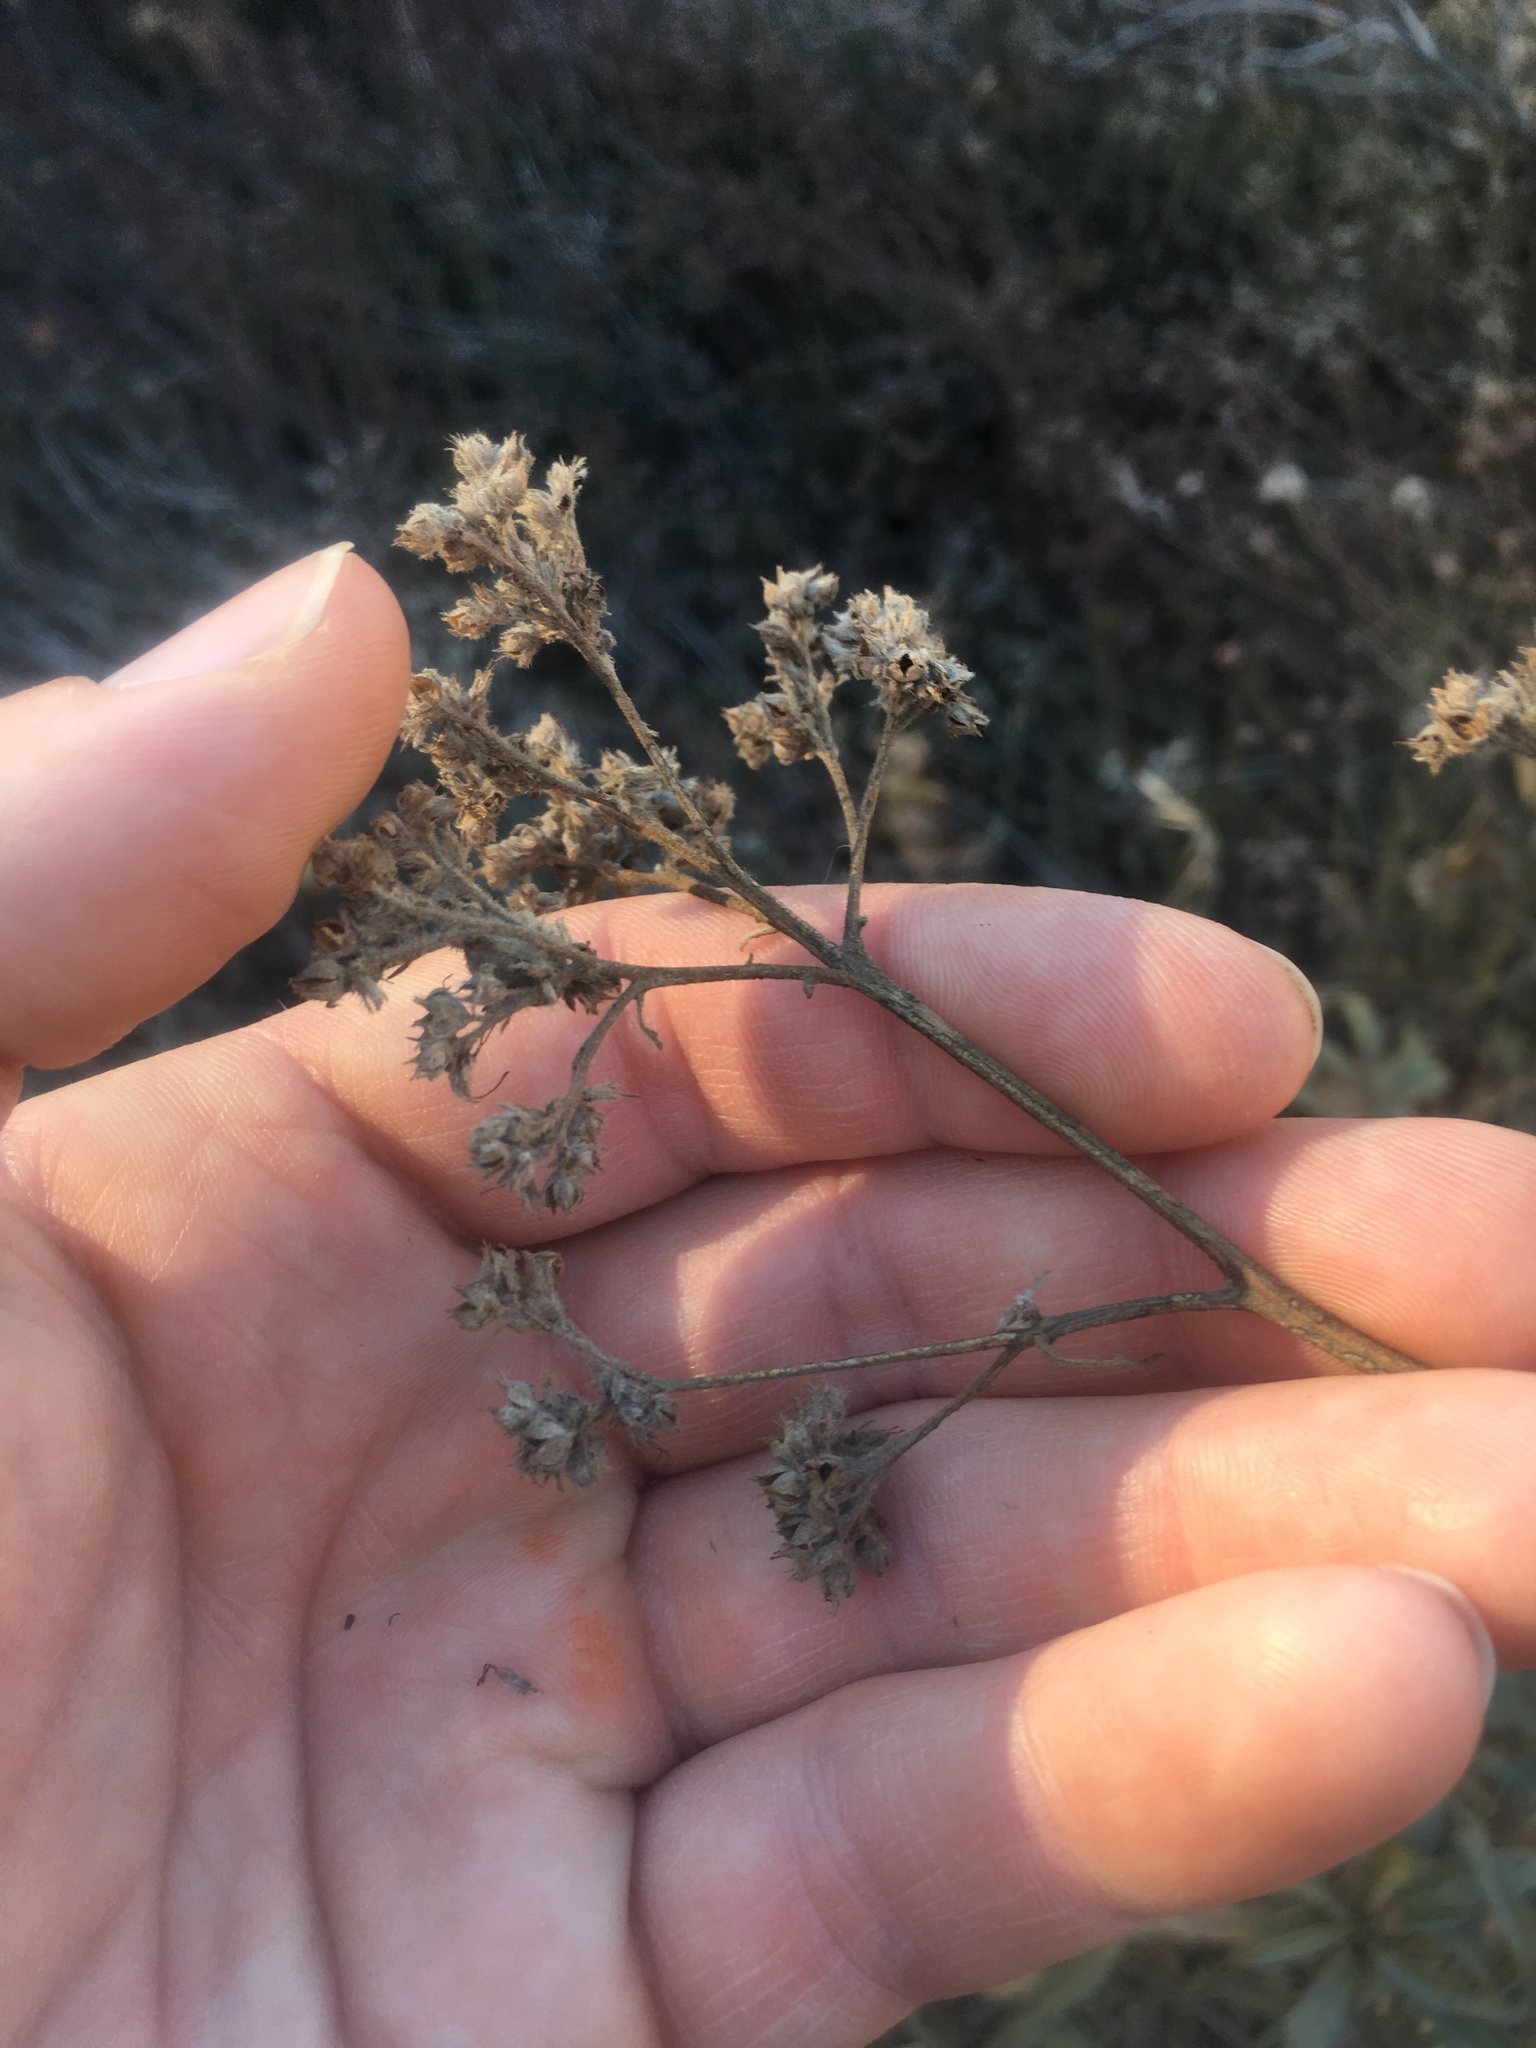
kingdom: Plantae
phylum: Tracheophyta
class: Magnoliopsida
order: Boraginales
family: Namaceae
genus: Eriodictyon
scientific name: Eriodictyon trichocalyx
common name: Hairy yerba-santa
